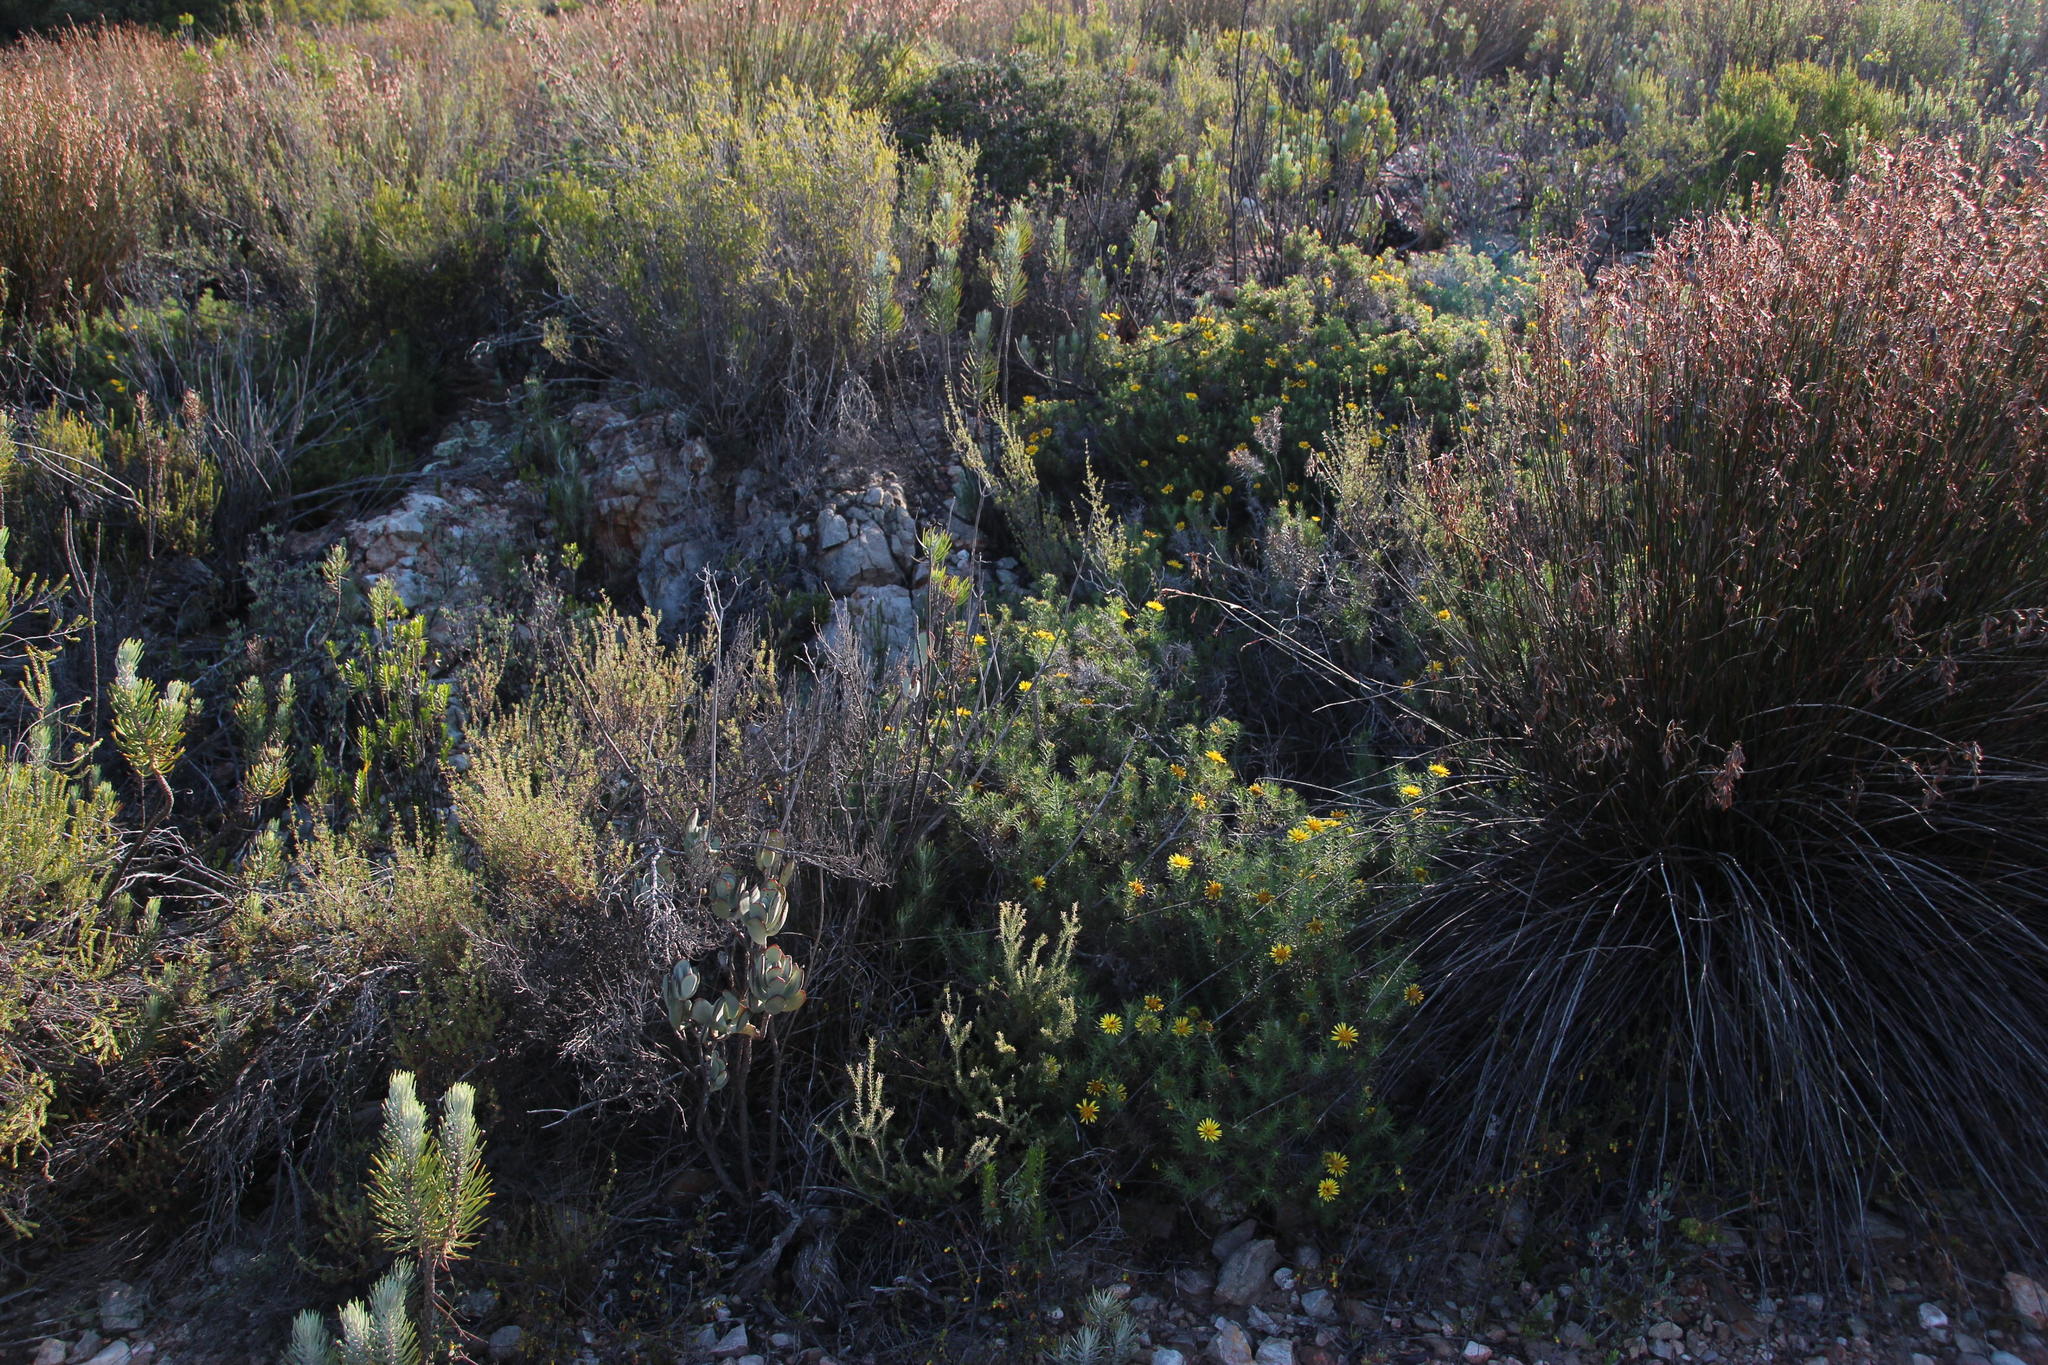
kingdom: Plantae
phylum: Tracheophyta
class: Magnoliopsida
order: Asterales
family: Asteraceae
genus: Cullumia
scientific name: Cullumia patula
